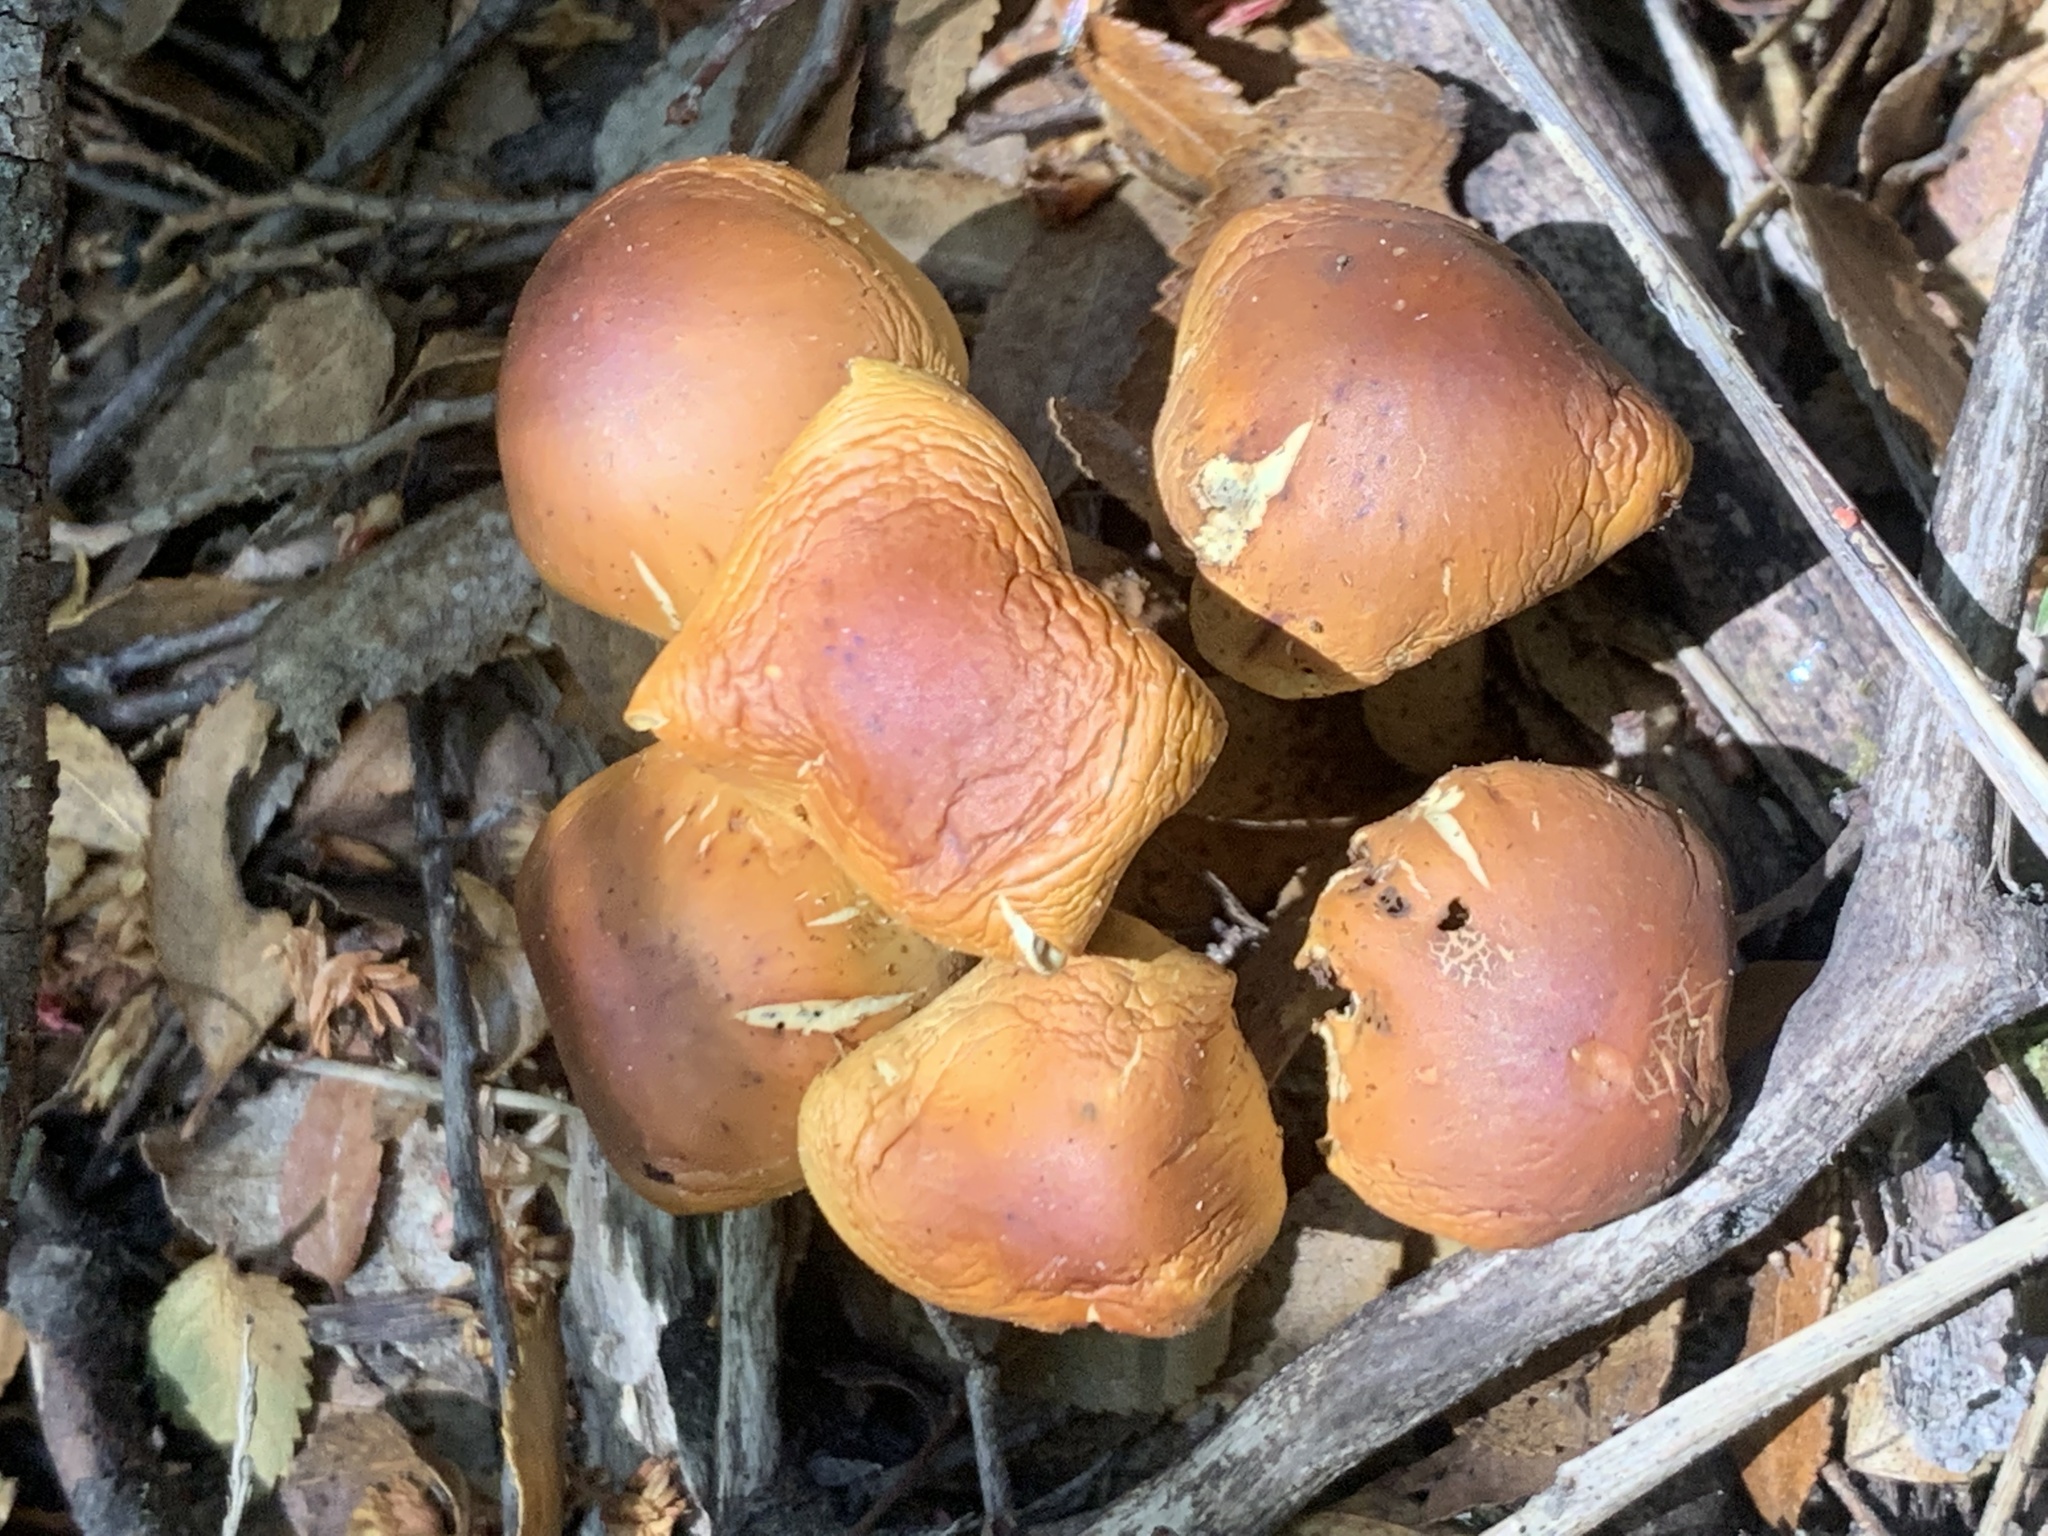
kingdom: Fungi
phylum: Basidiomycota
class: Agaricomycetes
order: Agaricales
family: Strophariaceae
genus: Hypholoma
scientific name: Hypholoma frowardii
